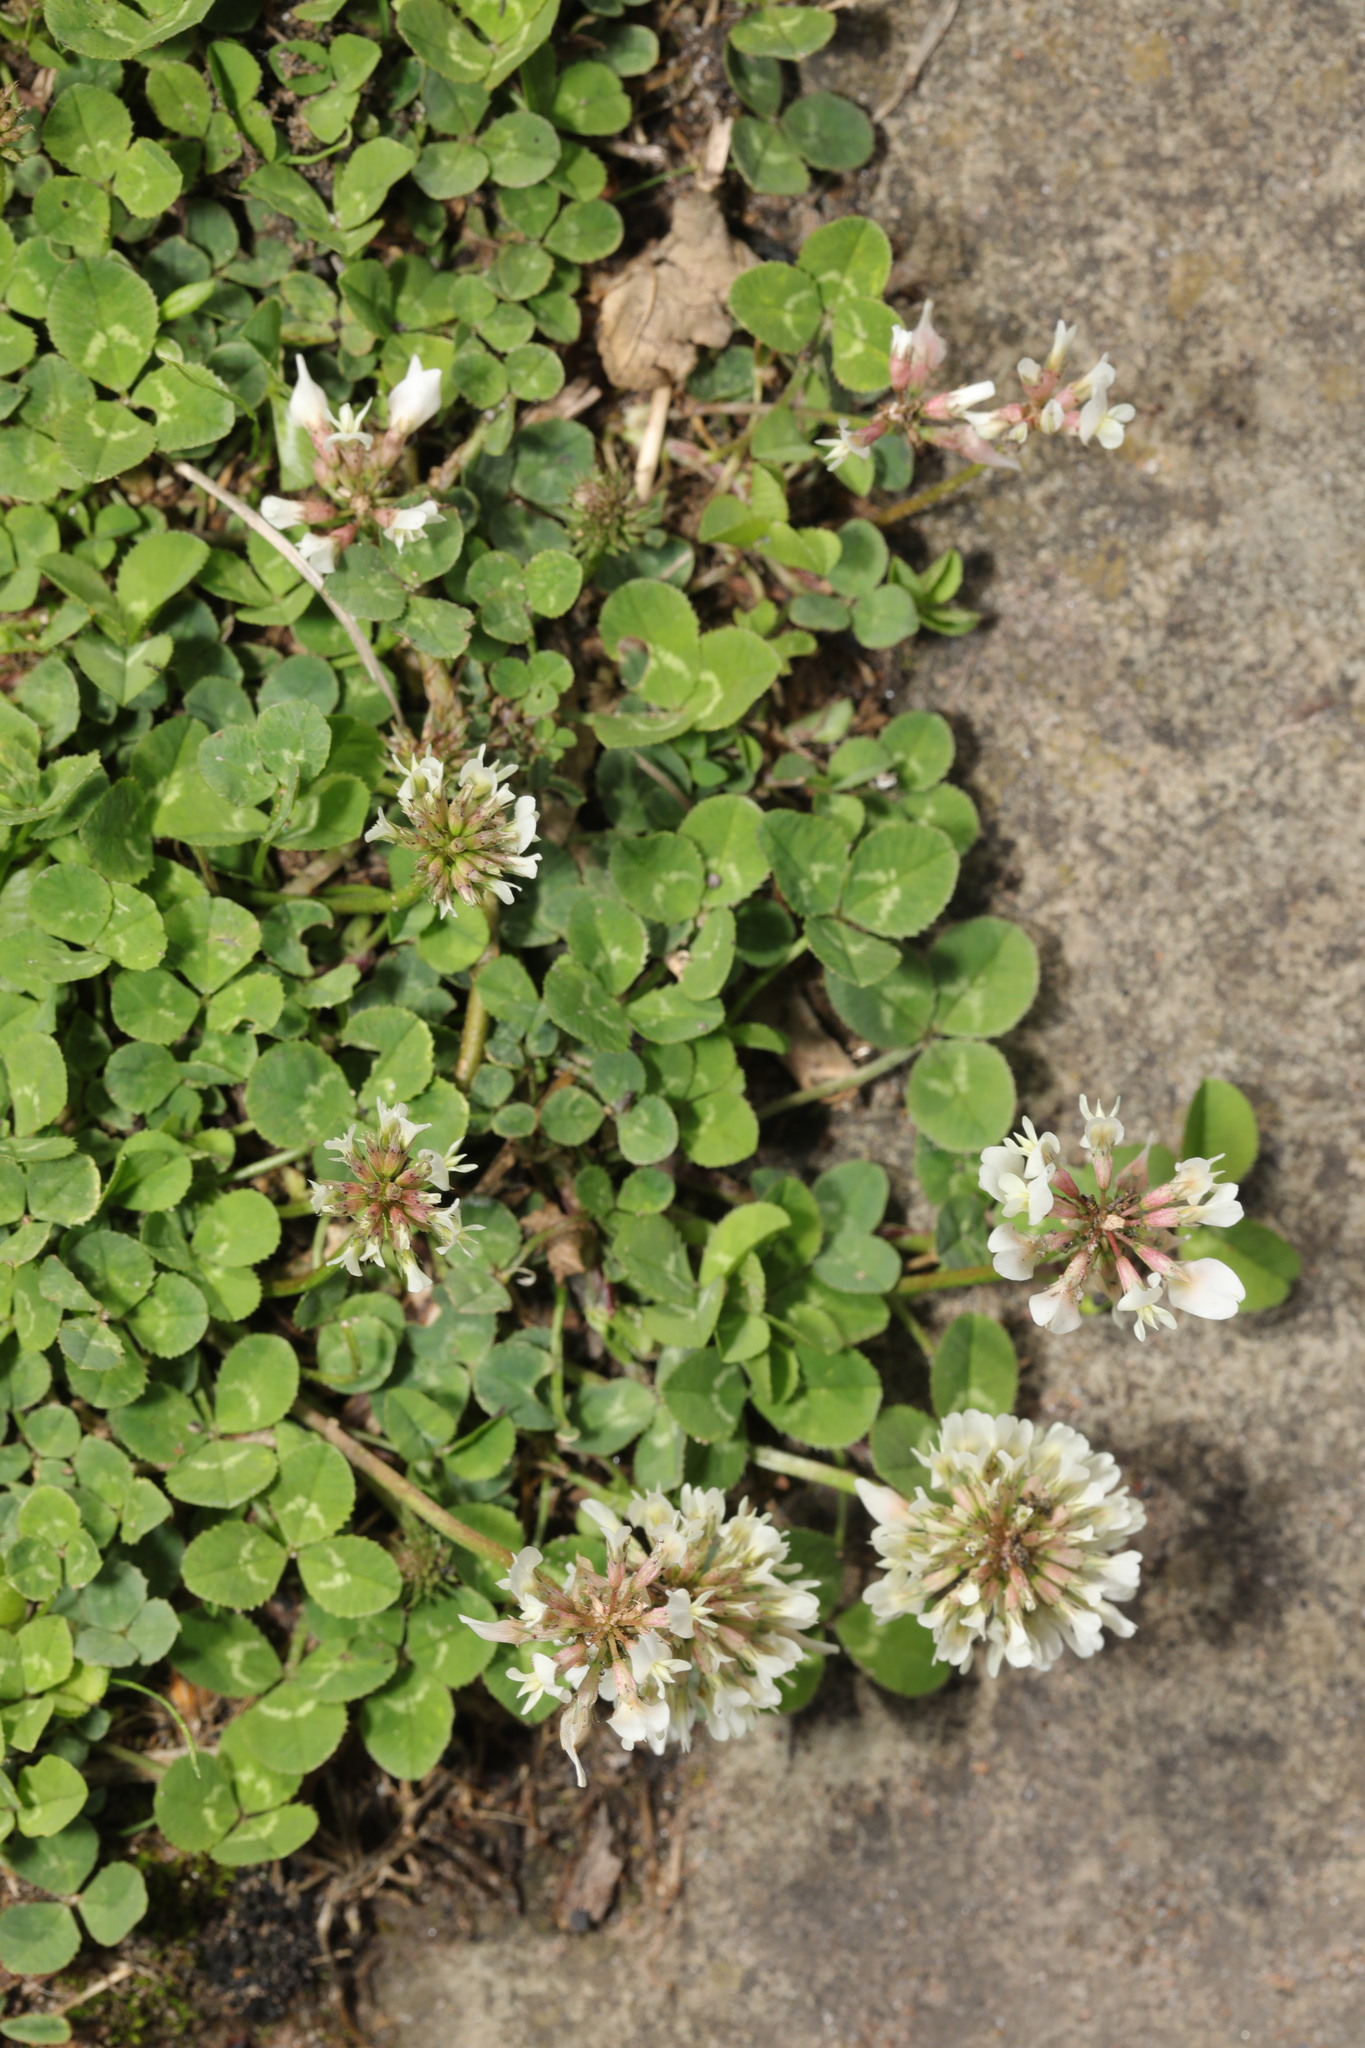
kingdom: Plantae
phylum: Tracheophyta
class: Magnoliopsida
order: Fabales
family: Fabaceae
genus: Trifolium
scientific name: Trifolium repens
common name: White clover
